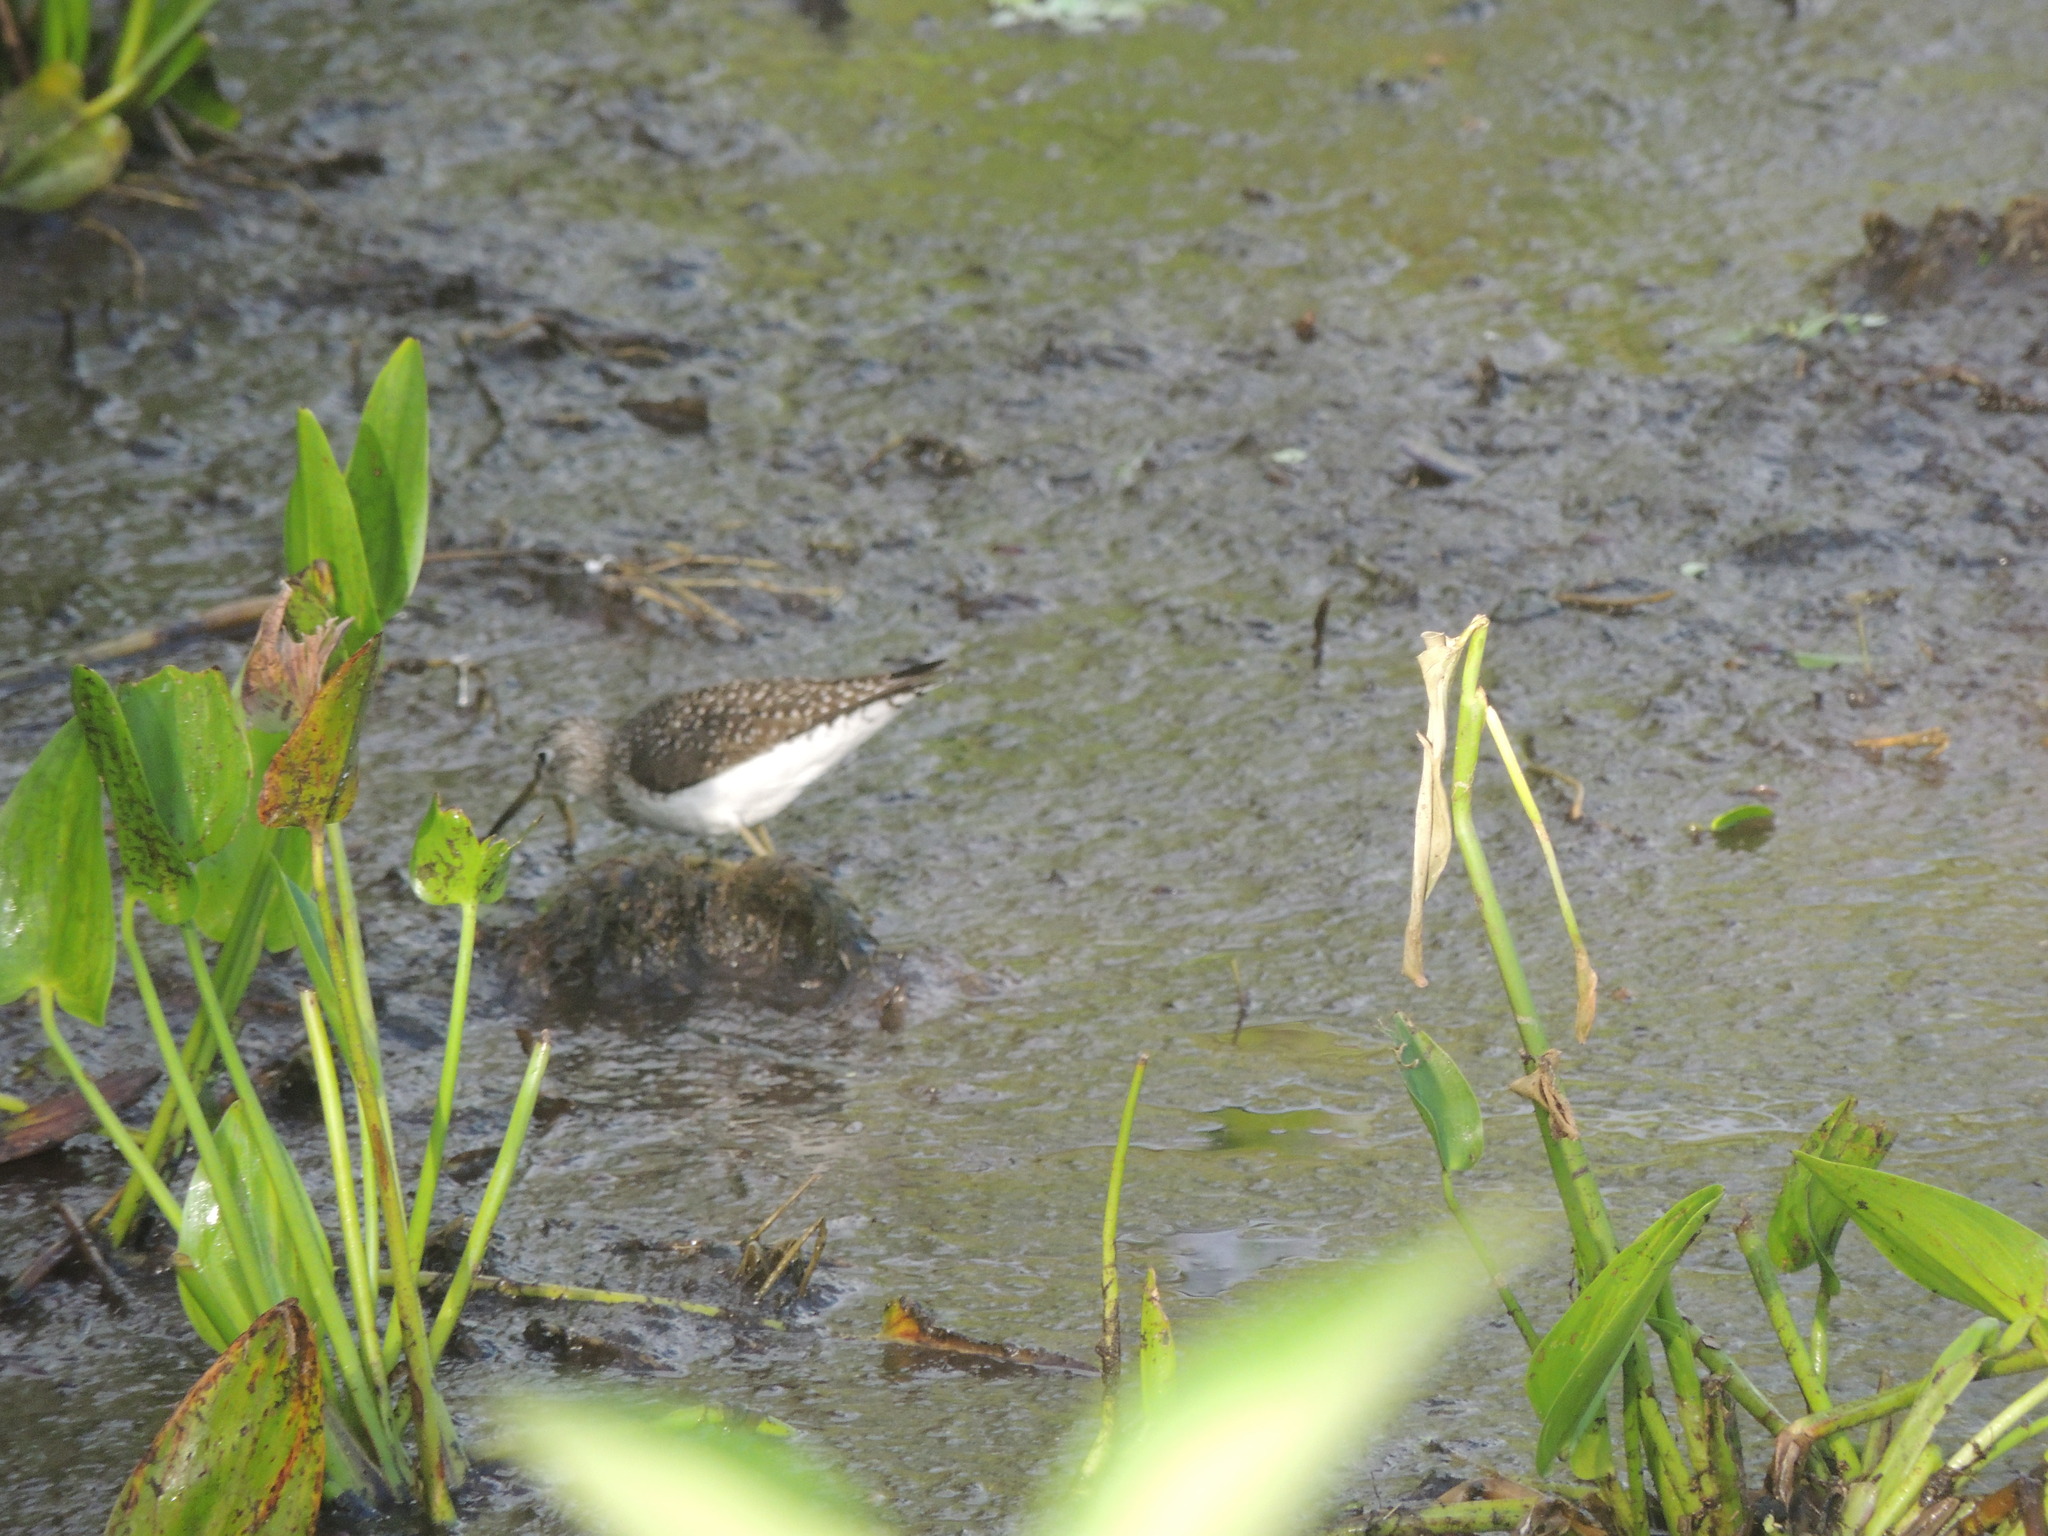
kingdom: Animalia
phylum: Chordata
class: Aves
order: Charadriiformes
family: Scolopacidae
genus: Tringa
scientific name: Tringa solitaria
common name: Solitary sandpiper
